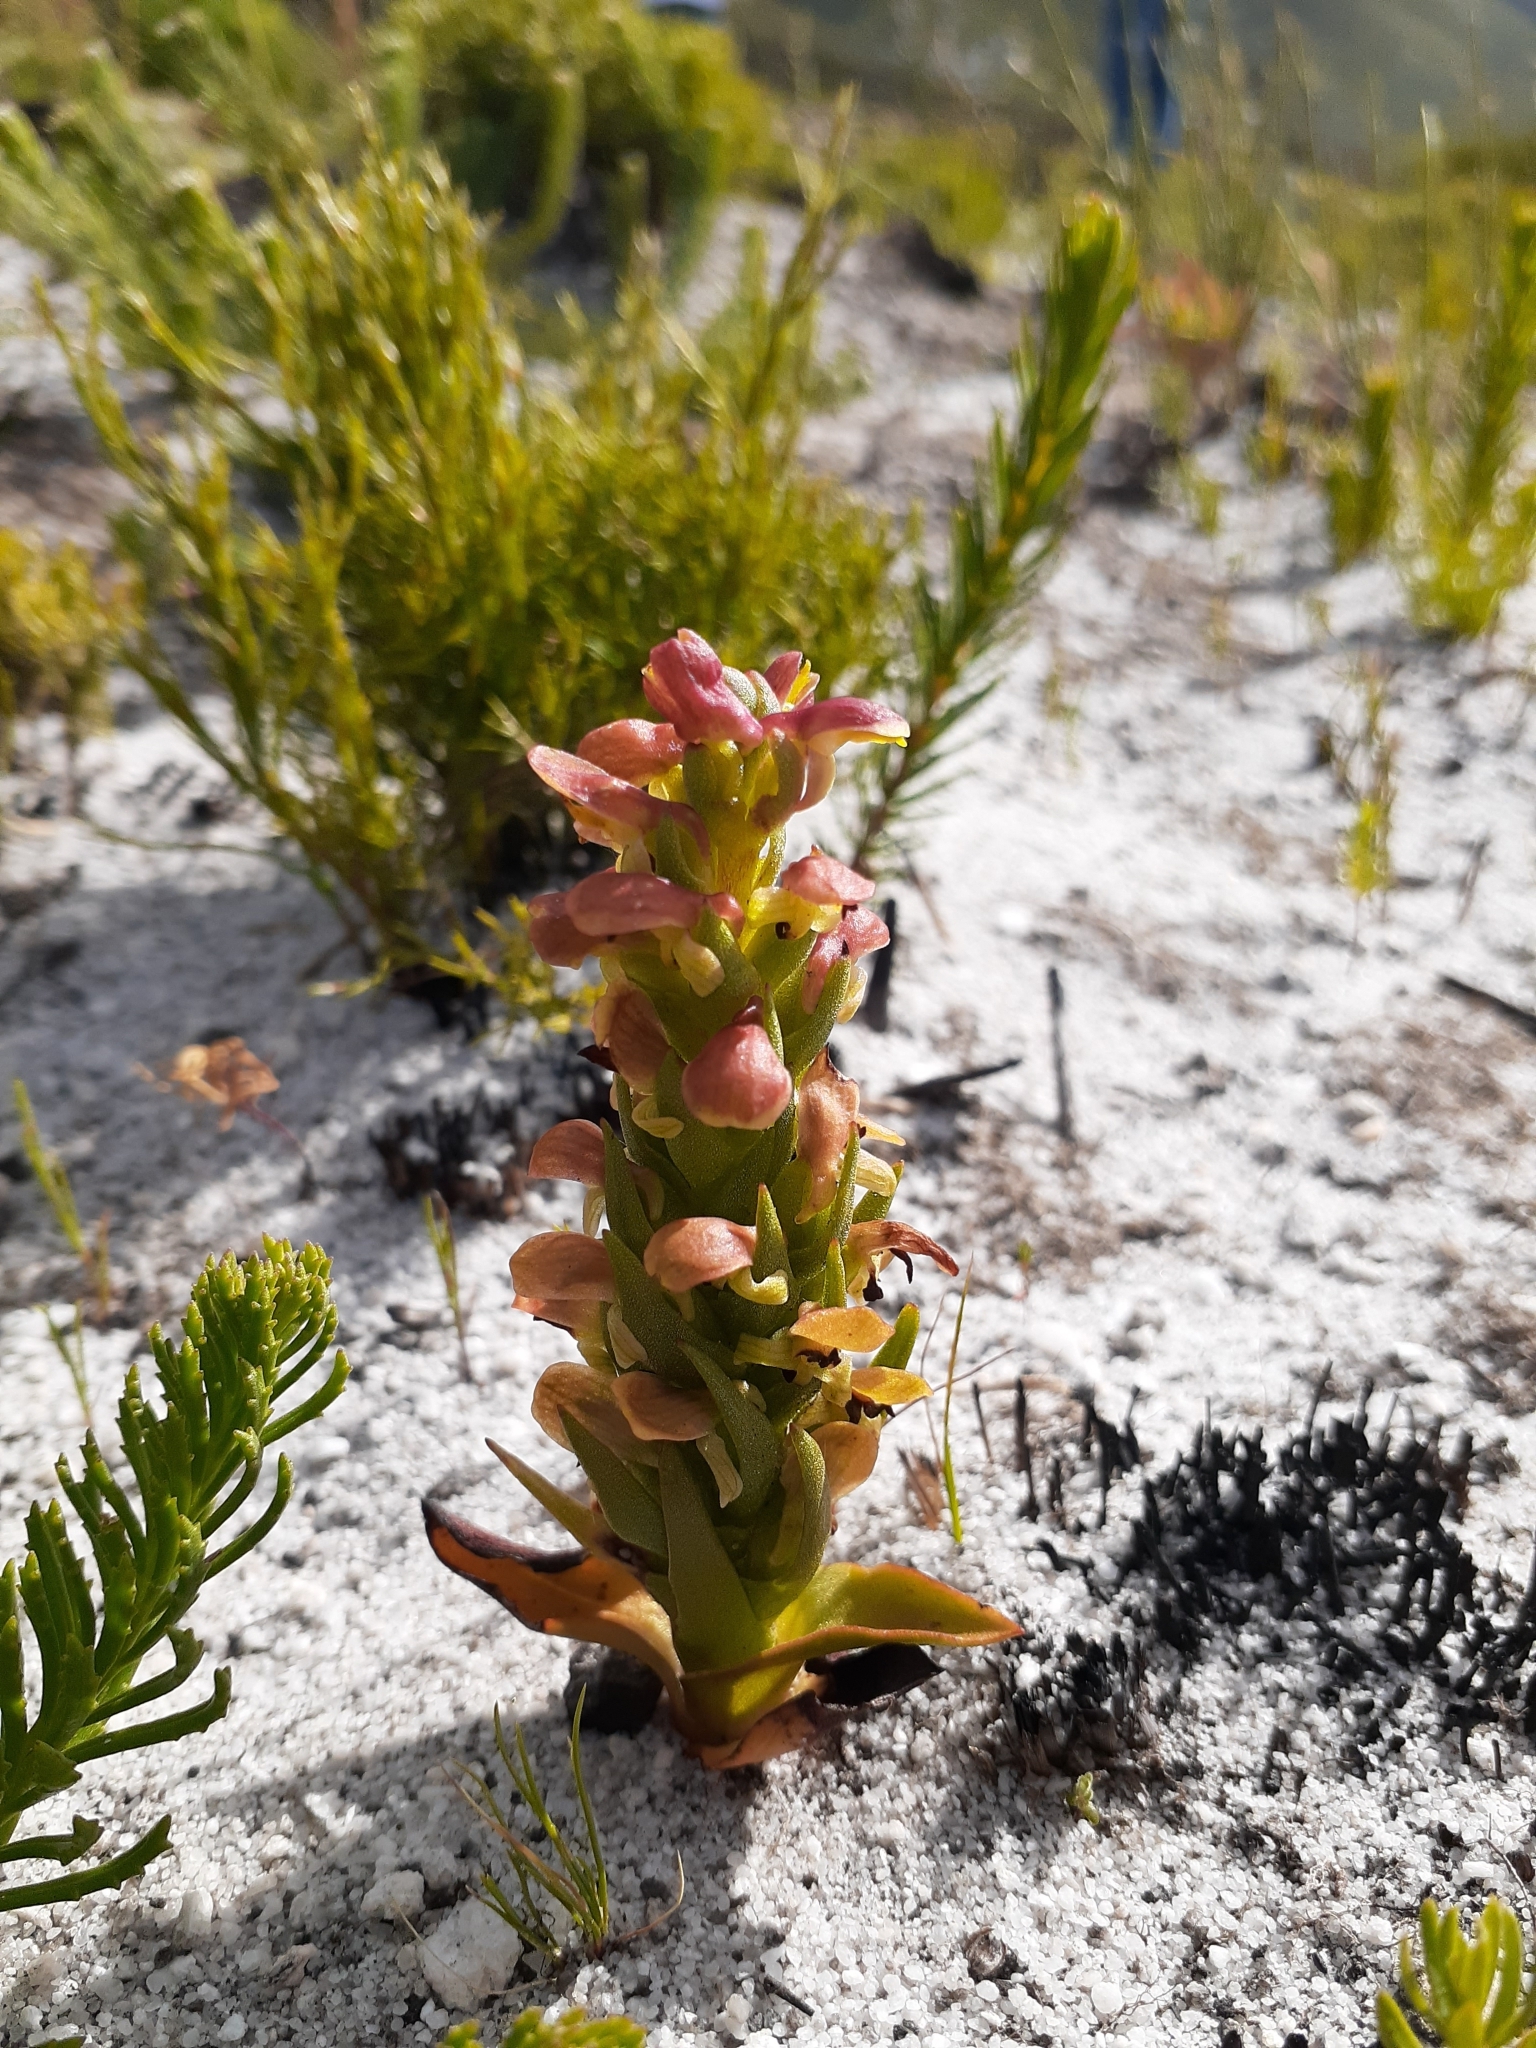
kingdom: Plantae
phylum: Tracheophyta
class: Liliopsida
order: Asparagales
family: Orchidaceae
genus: Disa
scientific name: Disa pygmaea
